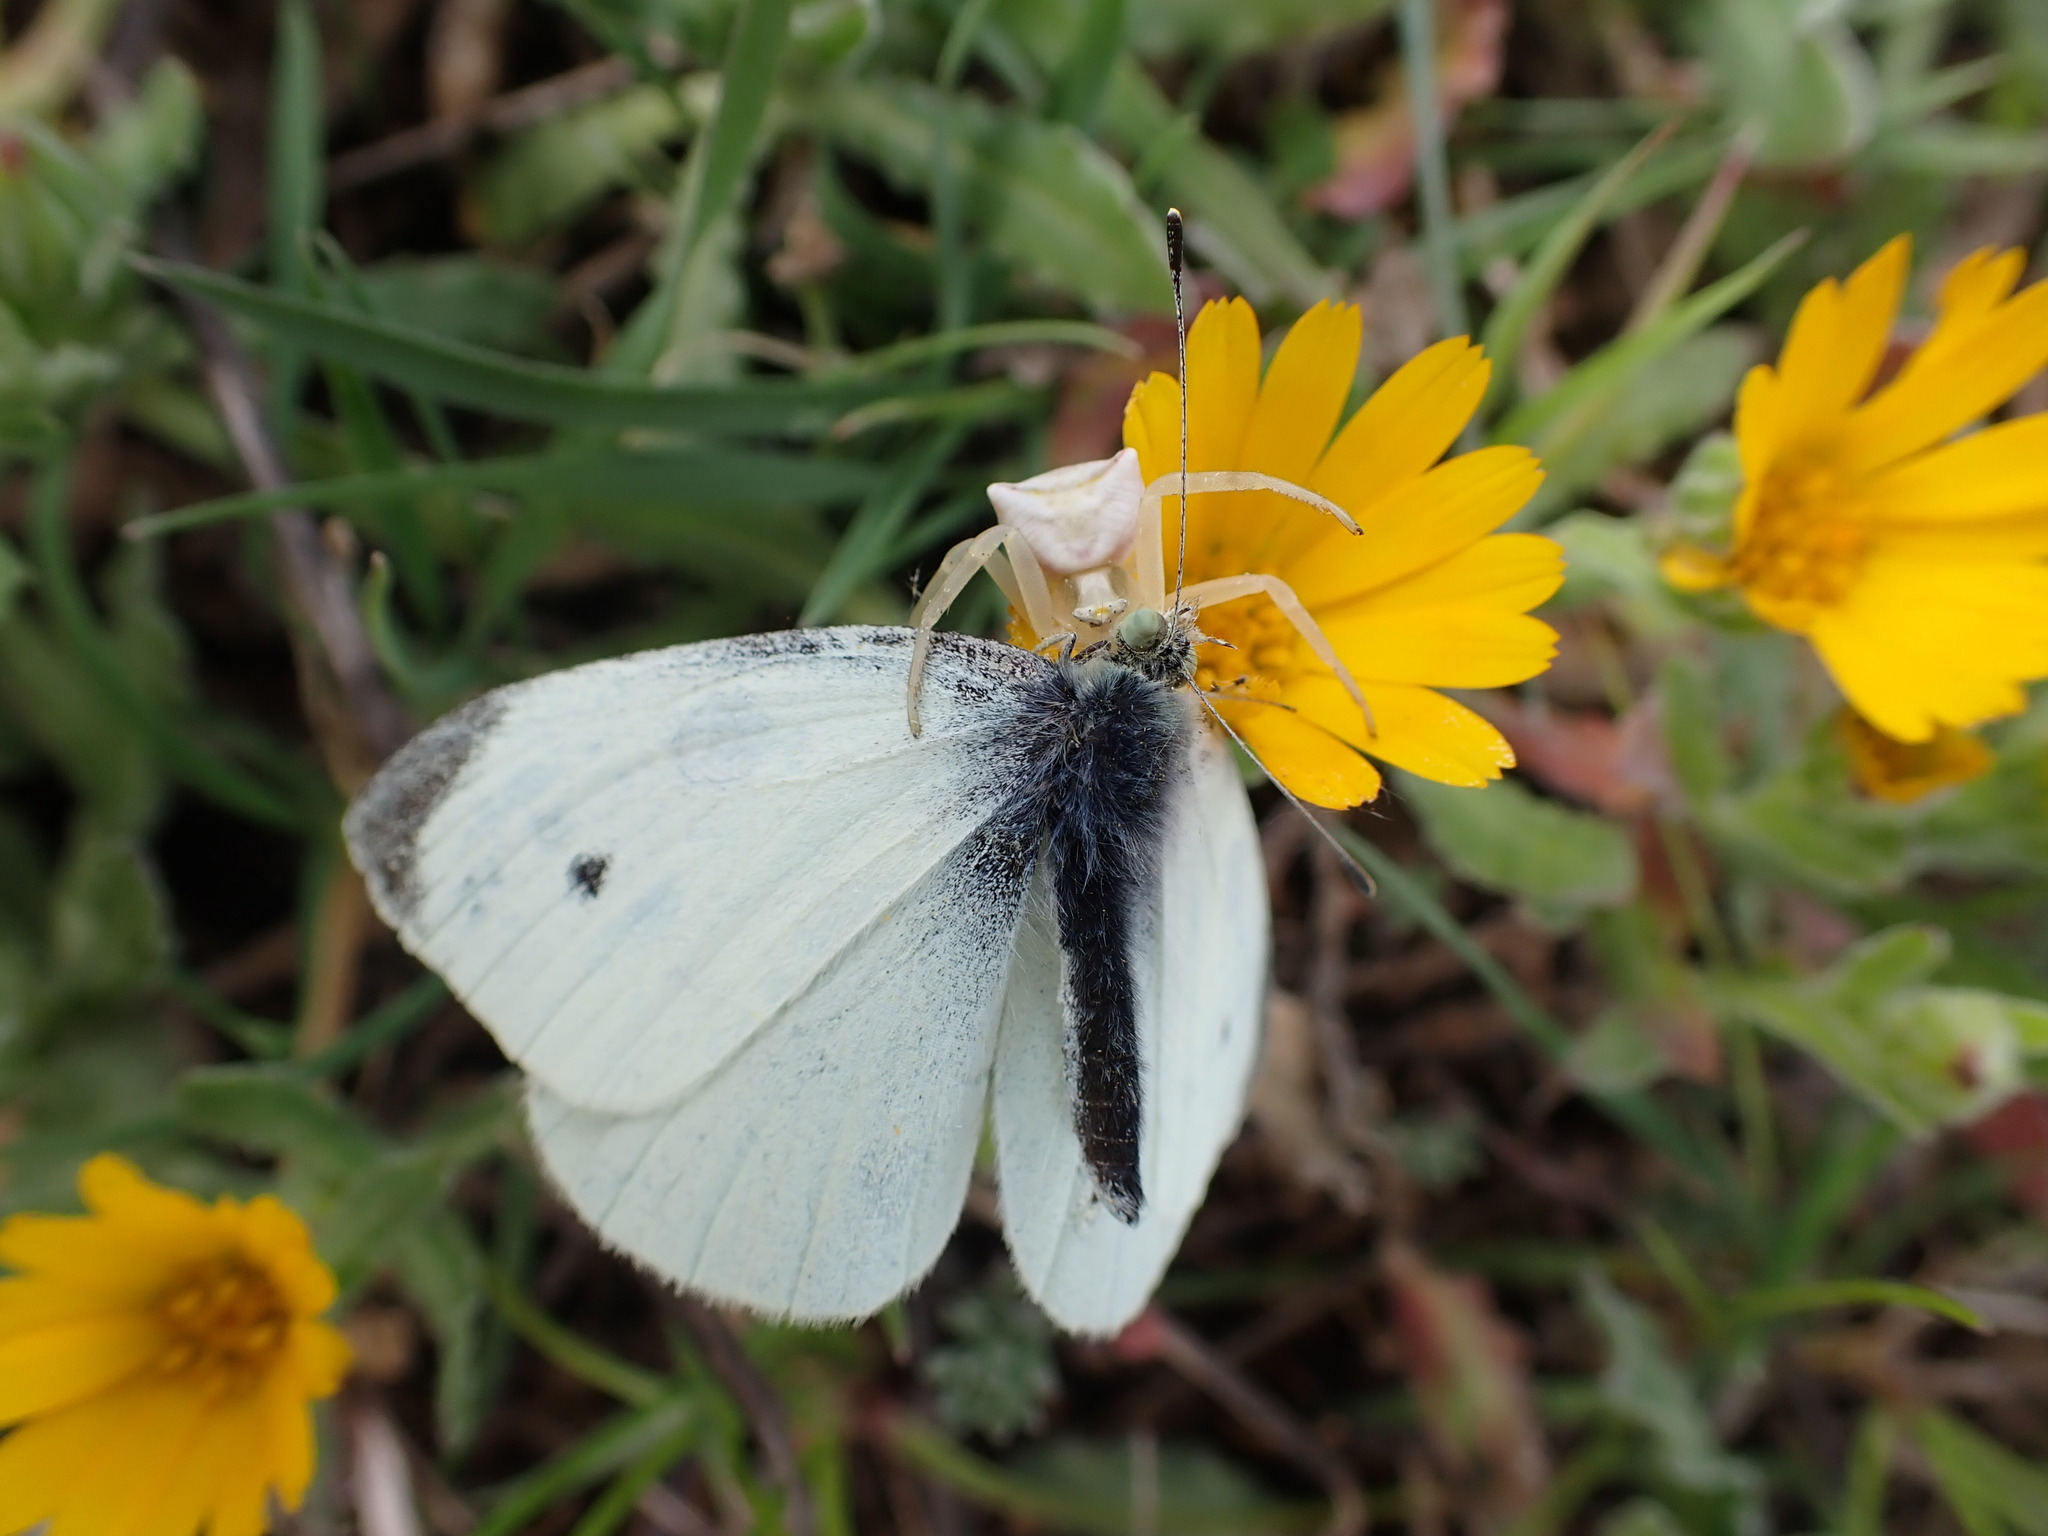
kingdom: Animalia
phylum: Arthropoda
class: Arachnida
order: Araneae
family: Thomisidae
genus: Thomisus
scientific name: Thomisus onustus
